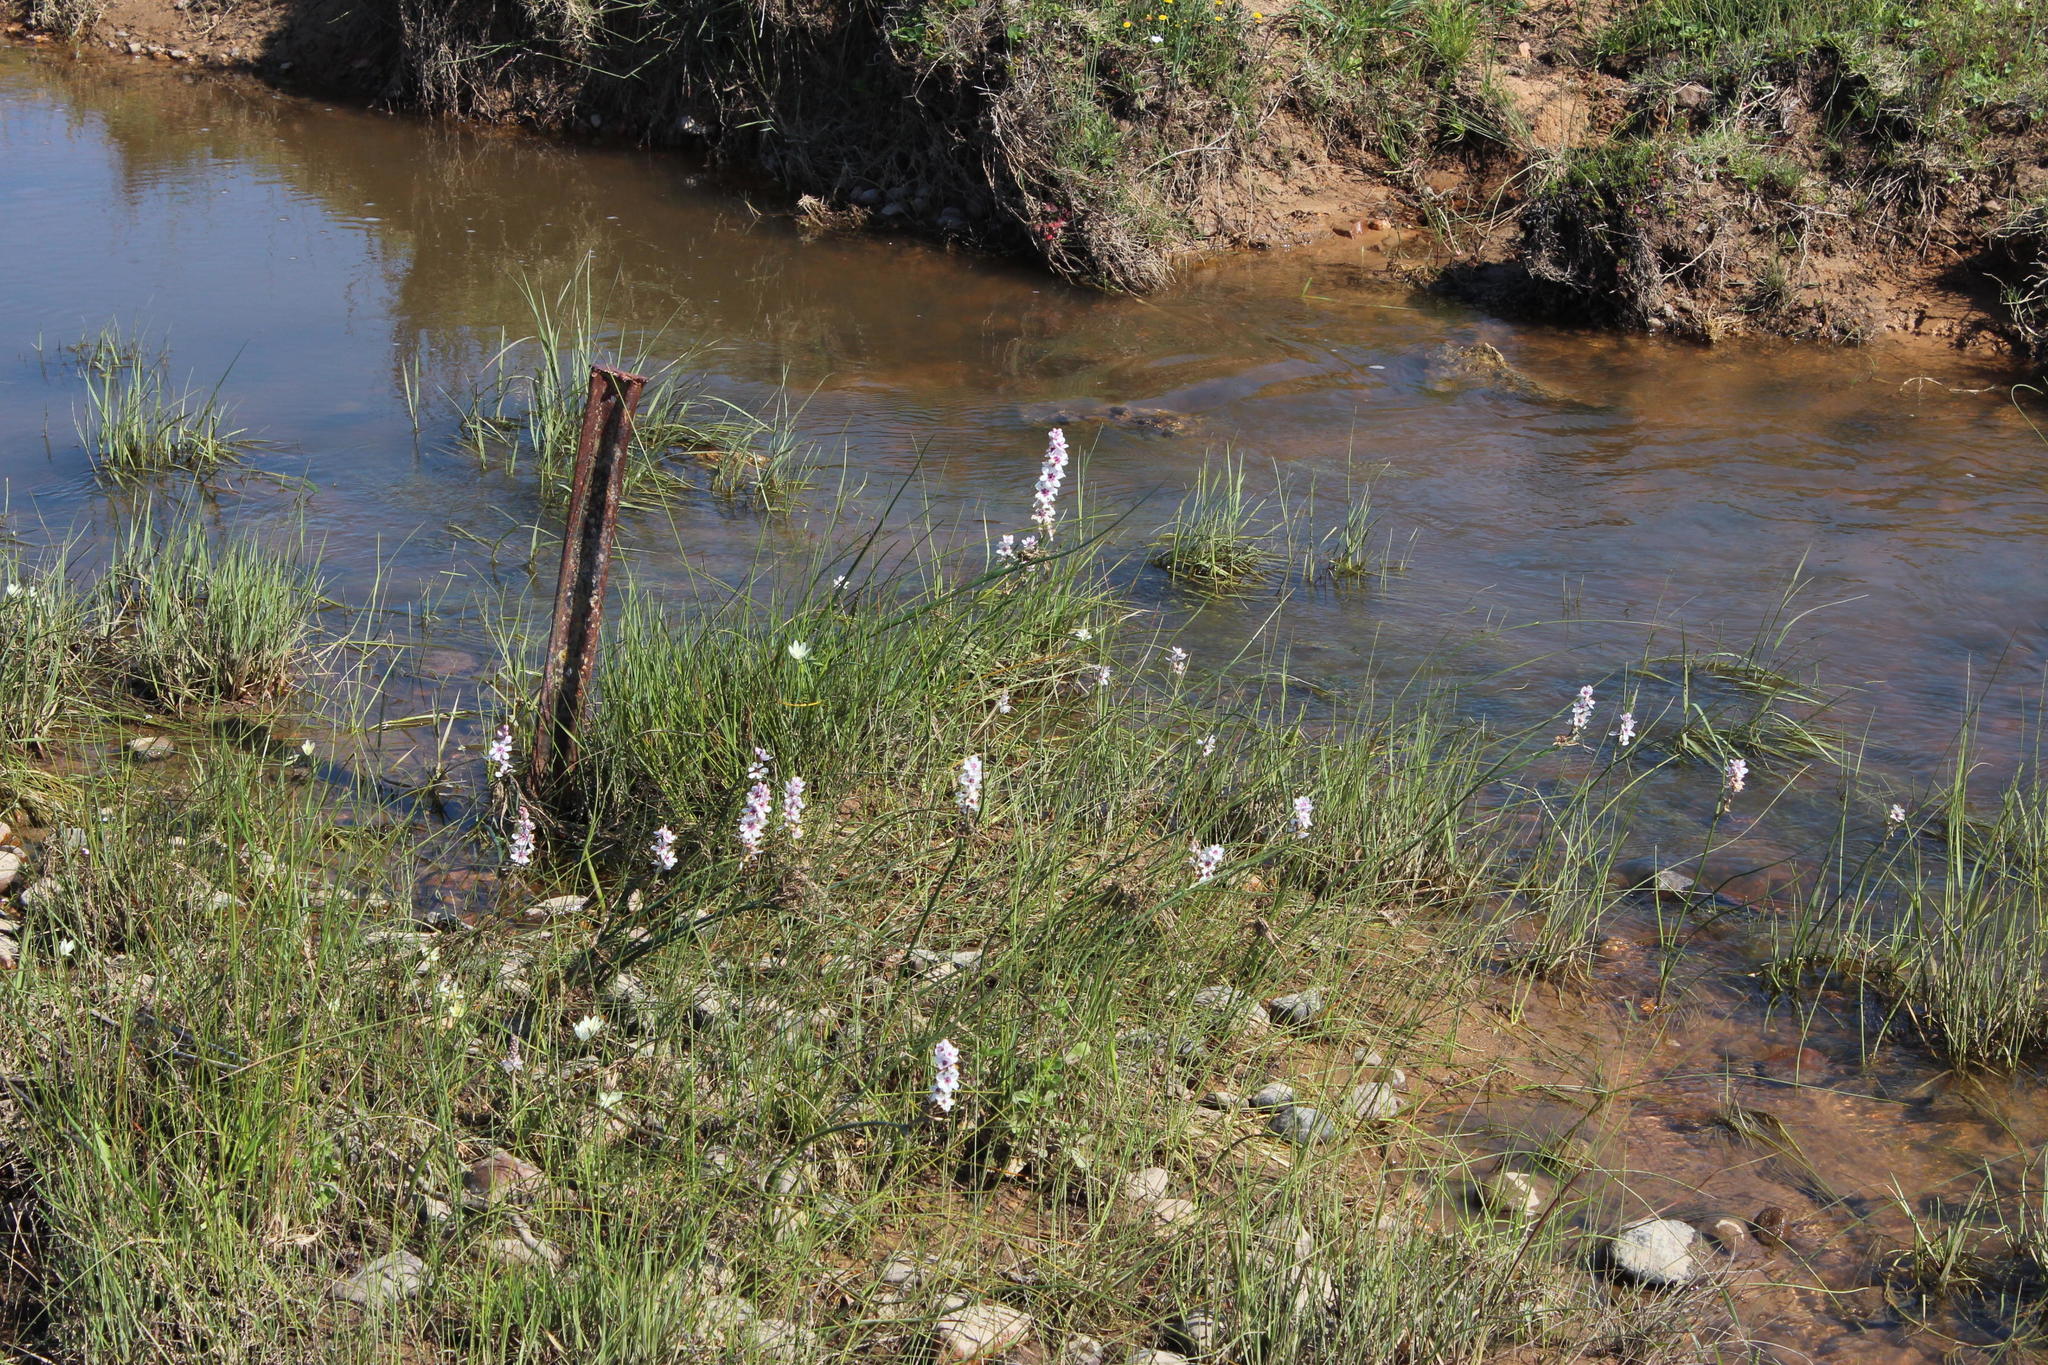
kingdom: Plantae
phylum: Tracheophyta
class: Liliopsida
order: Liliales
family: Colchicaceae
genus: Wurmbea
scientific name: Wurmbea stricta
